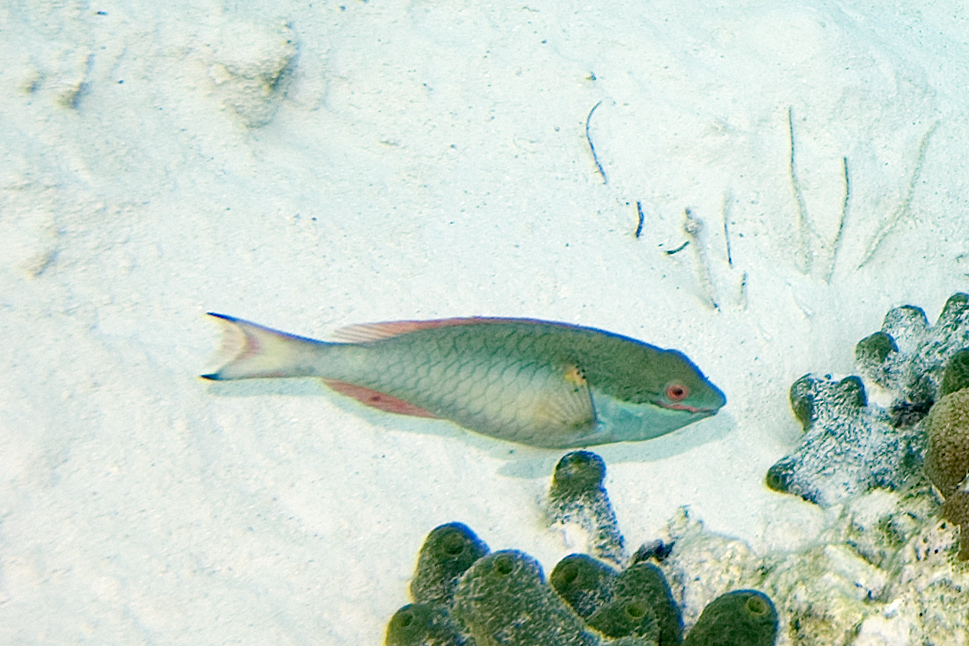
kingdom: Animalia
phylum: Chordata
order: Perciformes
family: Scaridae
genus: Sparisoma
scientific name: Sparisoma aurofrenatum
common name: Redband parrotfish
